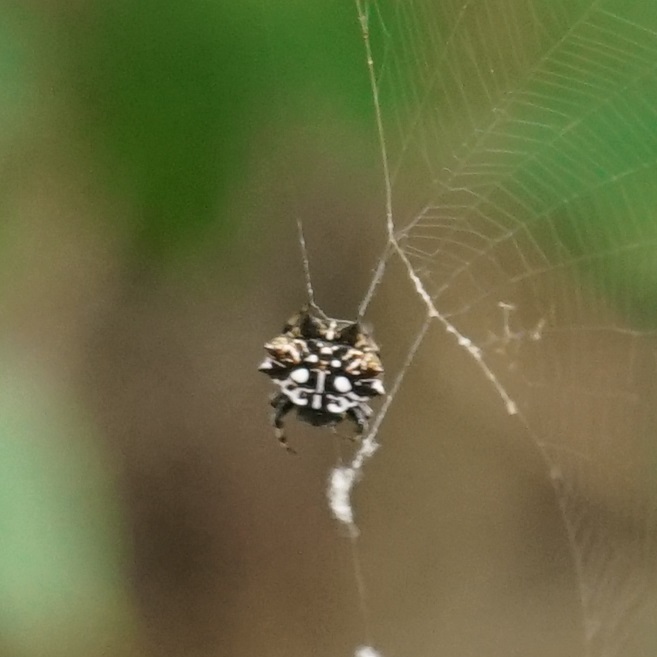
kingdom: Animalia
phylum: Arthropoda
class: Arachnida
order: Araneae
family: Araneidae
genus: Gasteracantha
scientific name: Gasteracantha sacerdotalis
